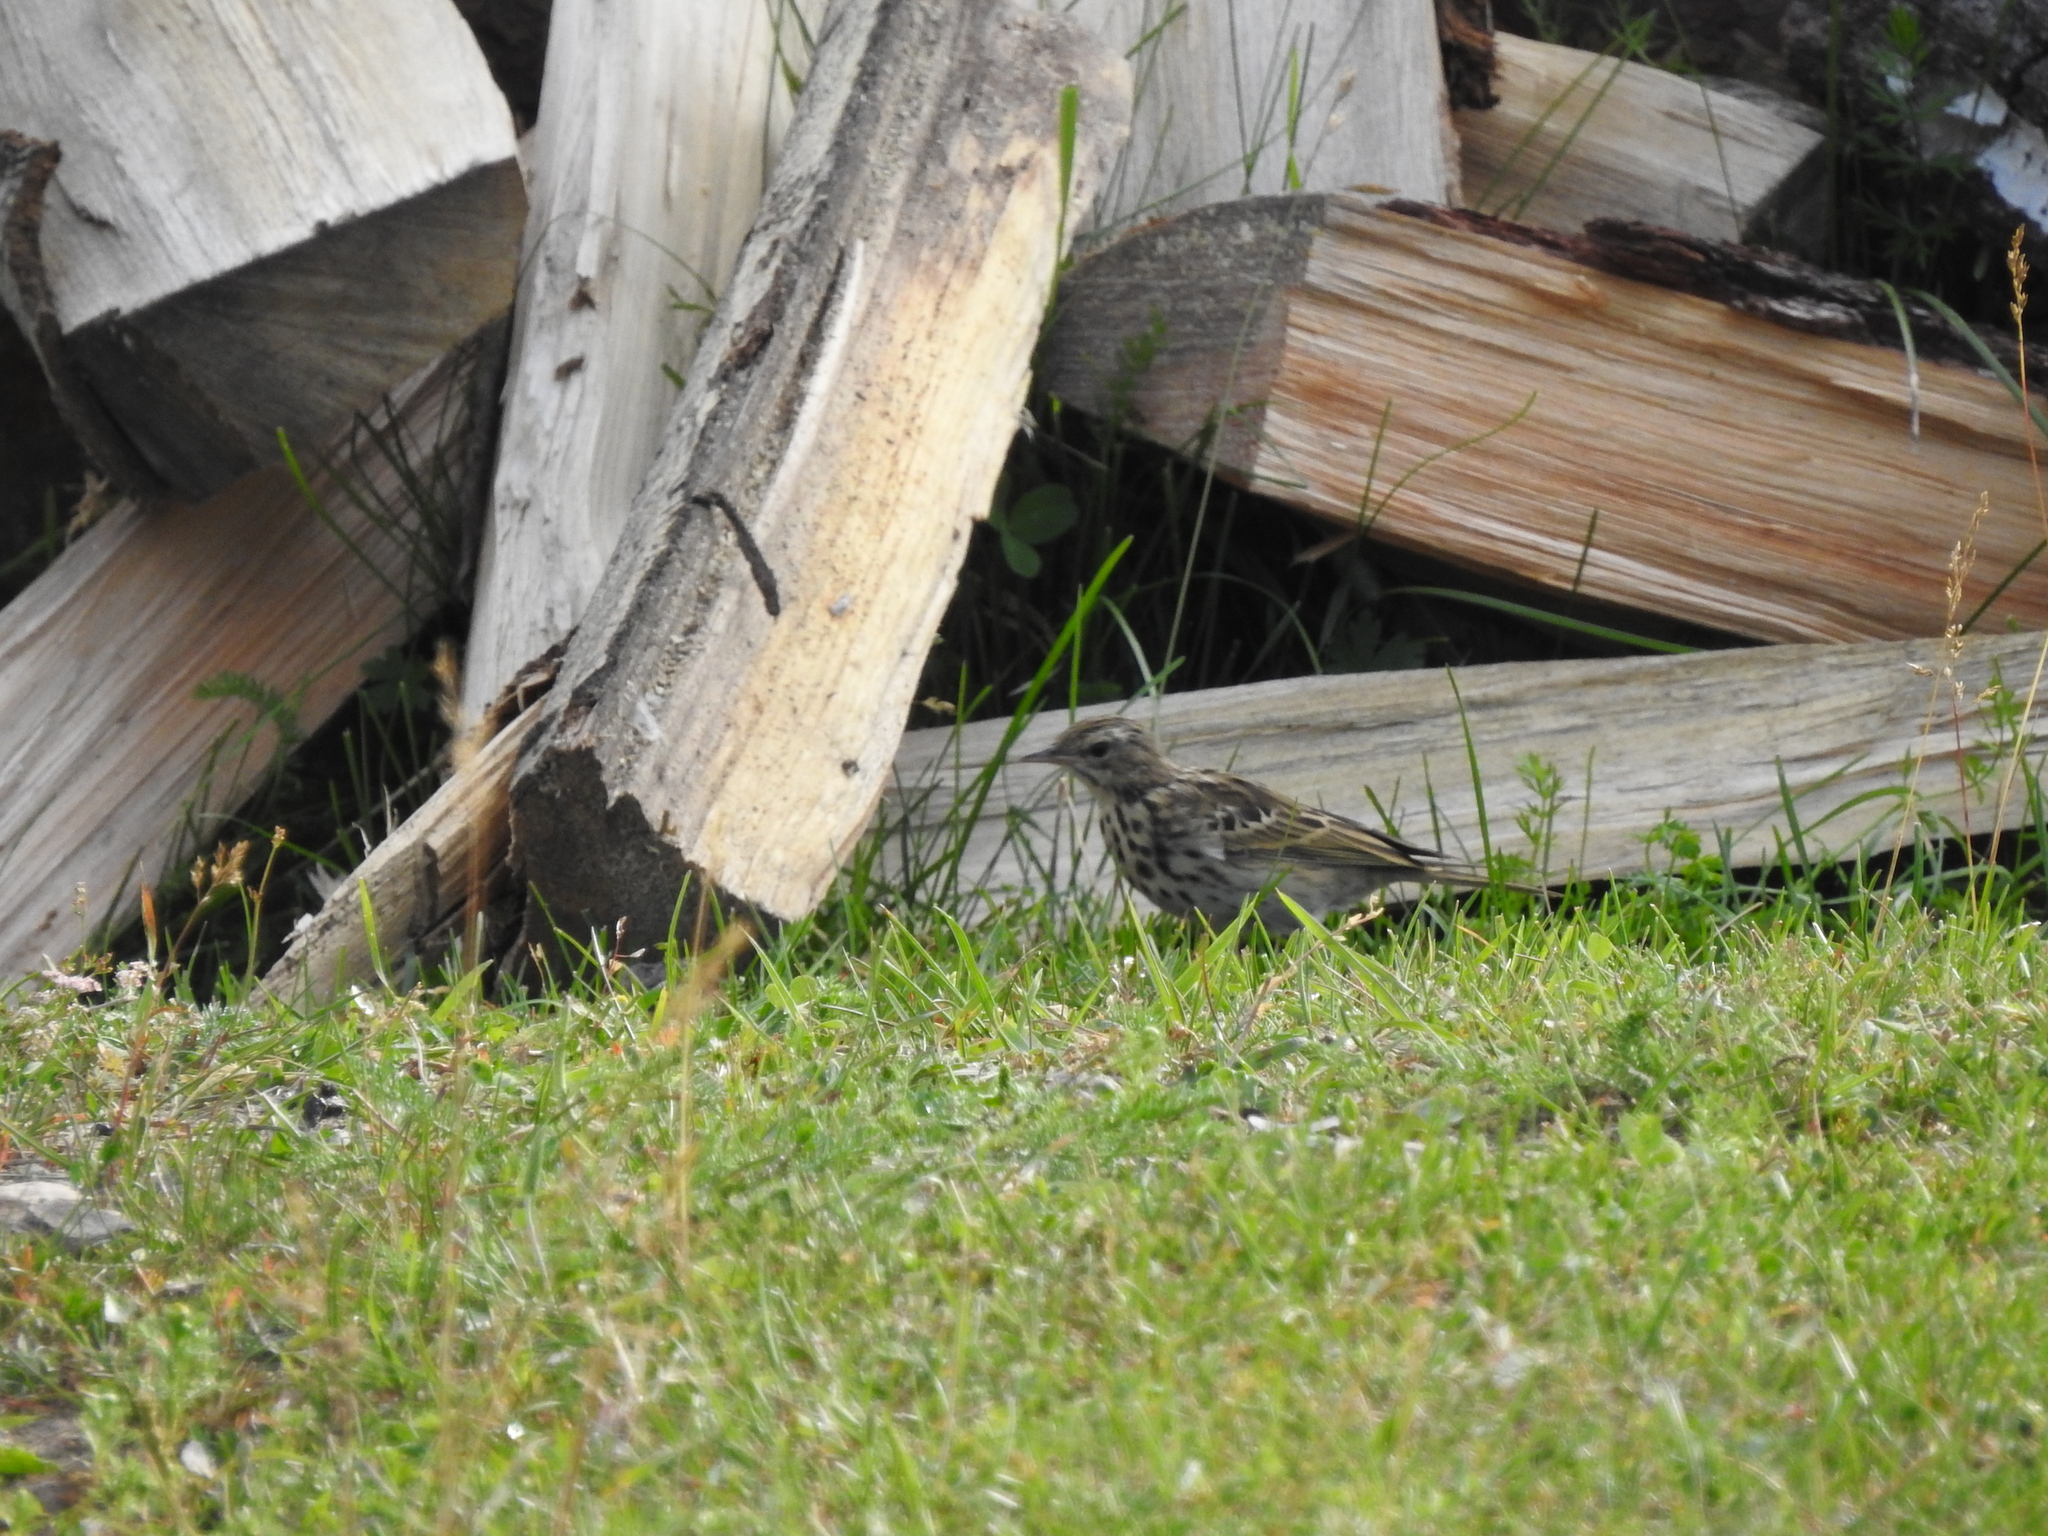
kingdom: Animalia
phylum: Chordata
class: Aves
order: Passeriformes
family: Motacillidae
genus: Anthus
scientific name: Anthus trivialis
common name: Tree pipit
